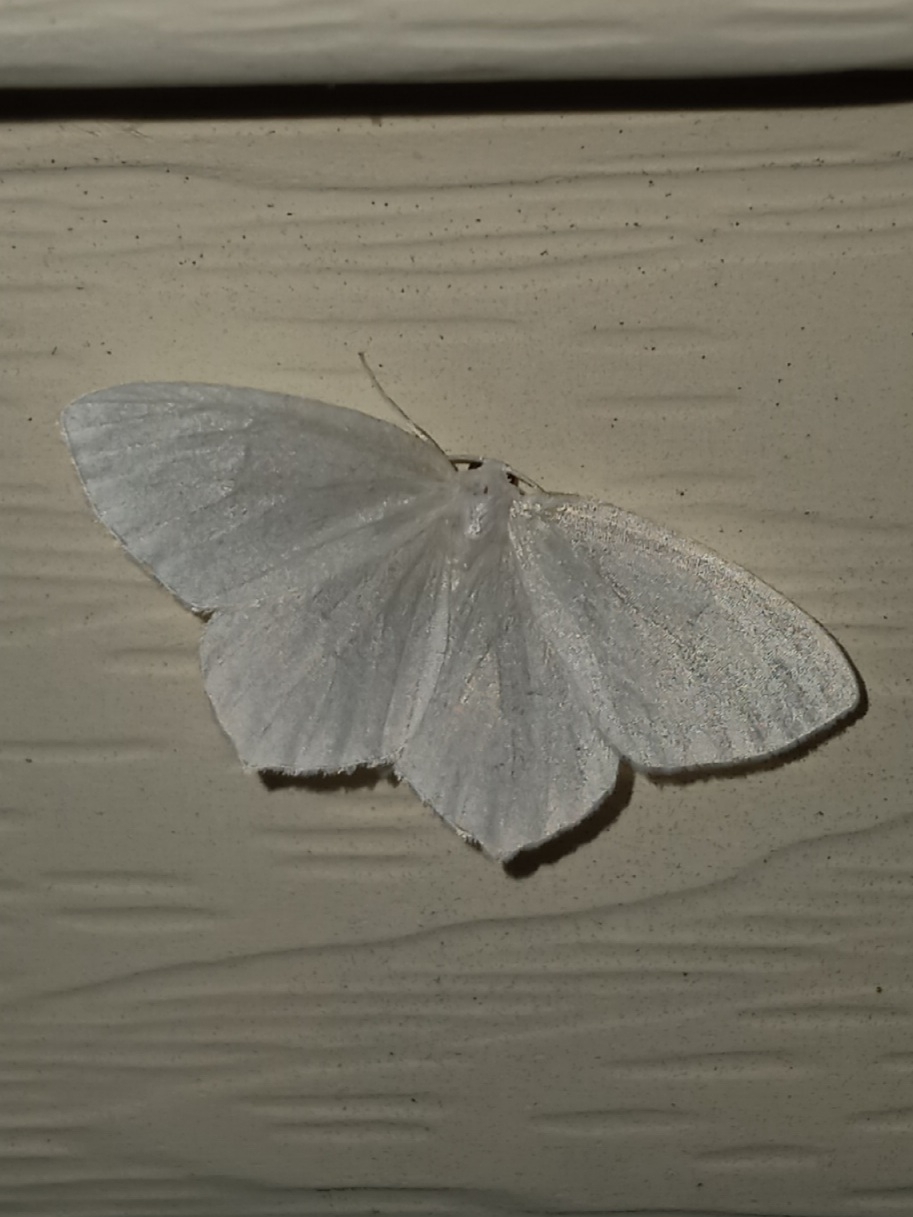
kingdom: Animalia
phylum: Arthropoda
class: Insecta
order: Lepidoptera
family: Geometridae
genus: Eugonobapta
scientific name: Eugonobapta nivosaria
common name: Snowy geometer
